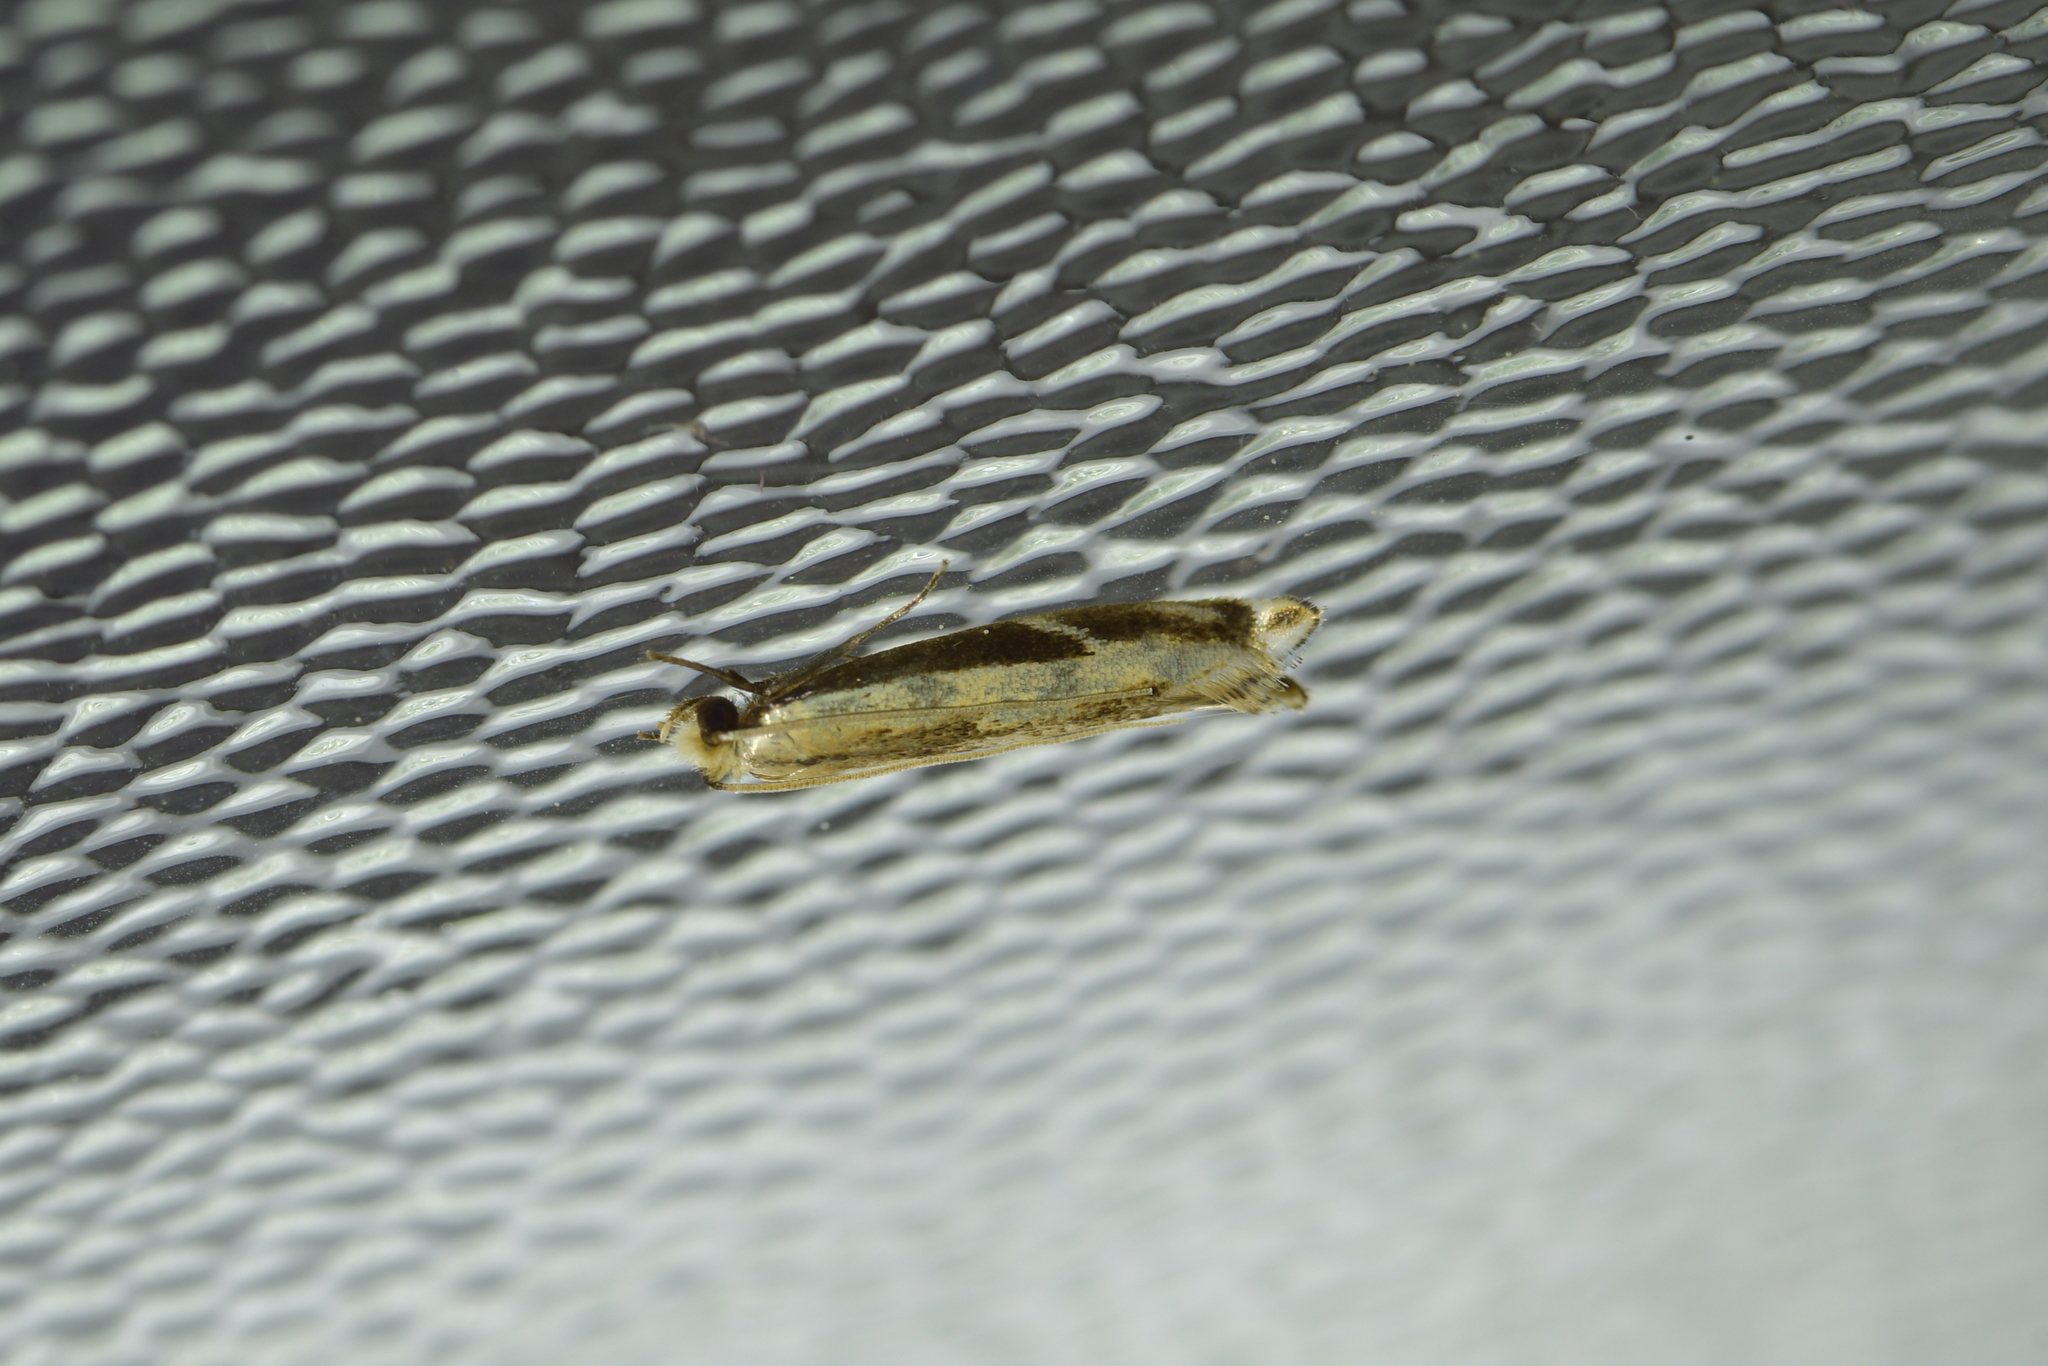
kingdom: Animalia
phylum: Arthropoda
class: Insecta
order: Lepidoptera
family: Tineidae
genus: Erechthias
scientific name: Erechthias terminella
